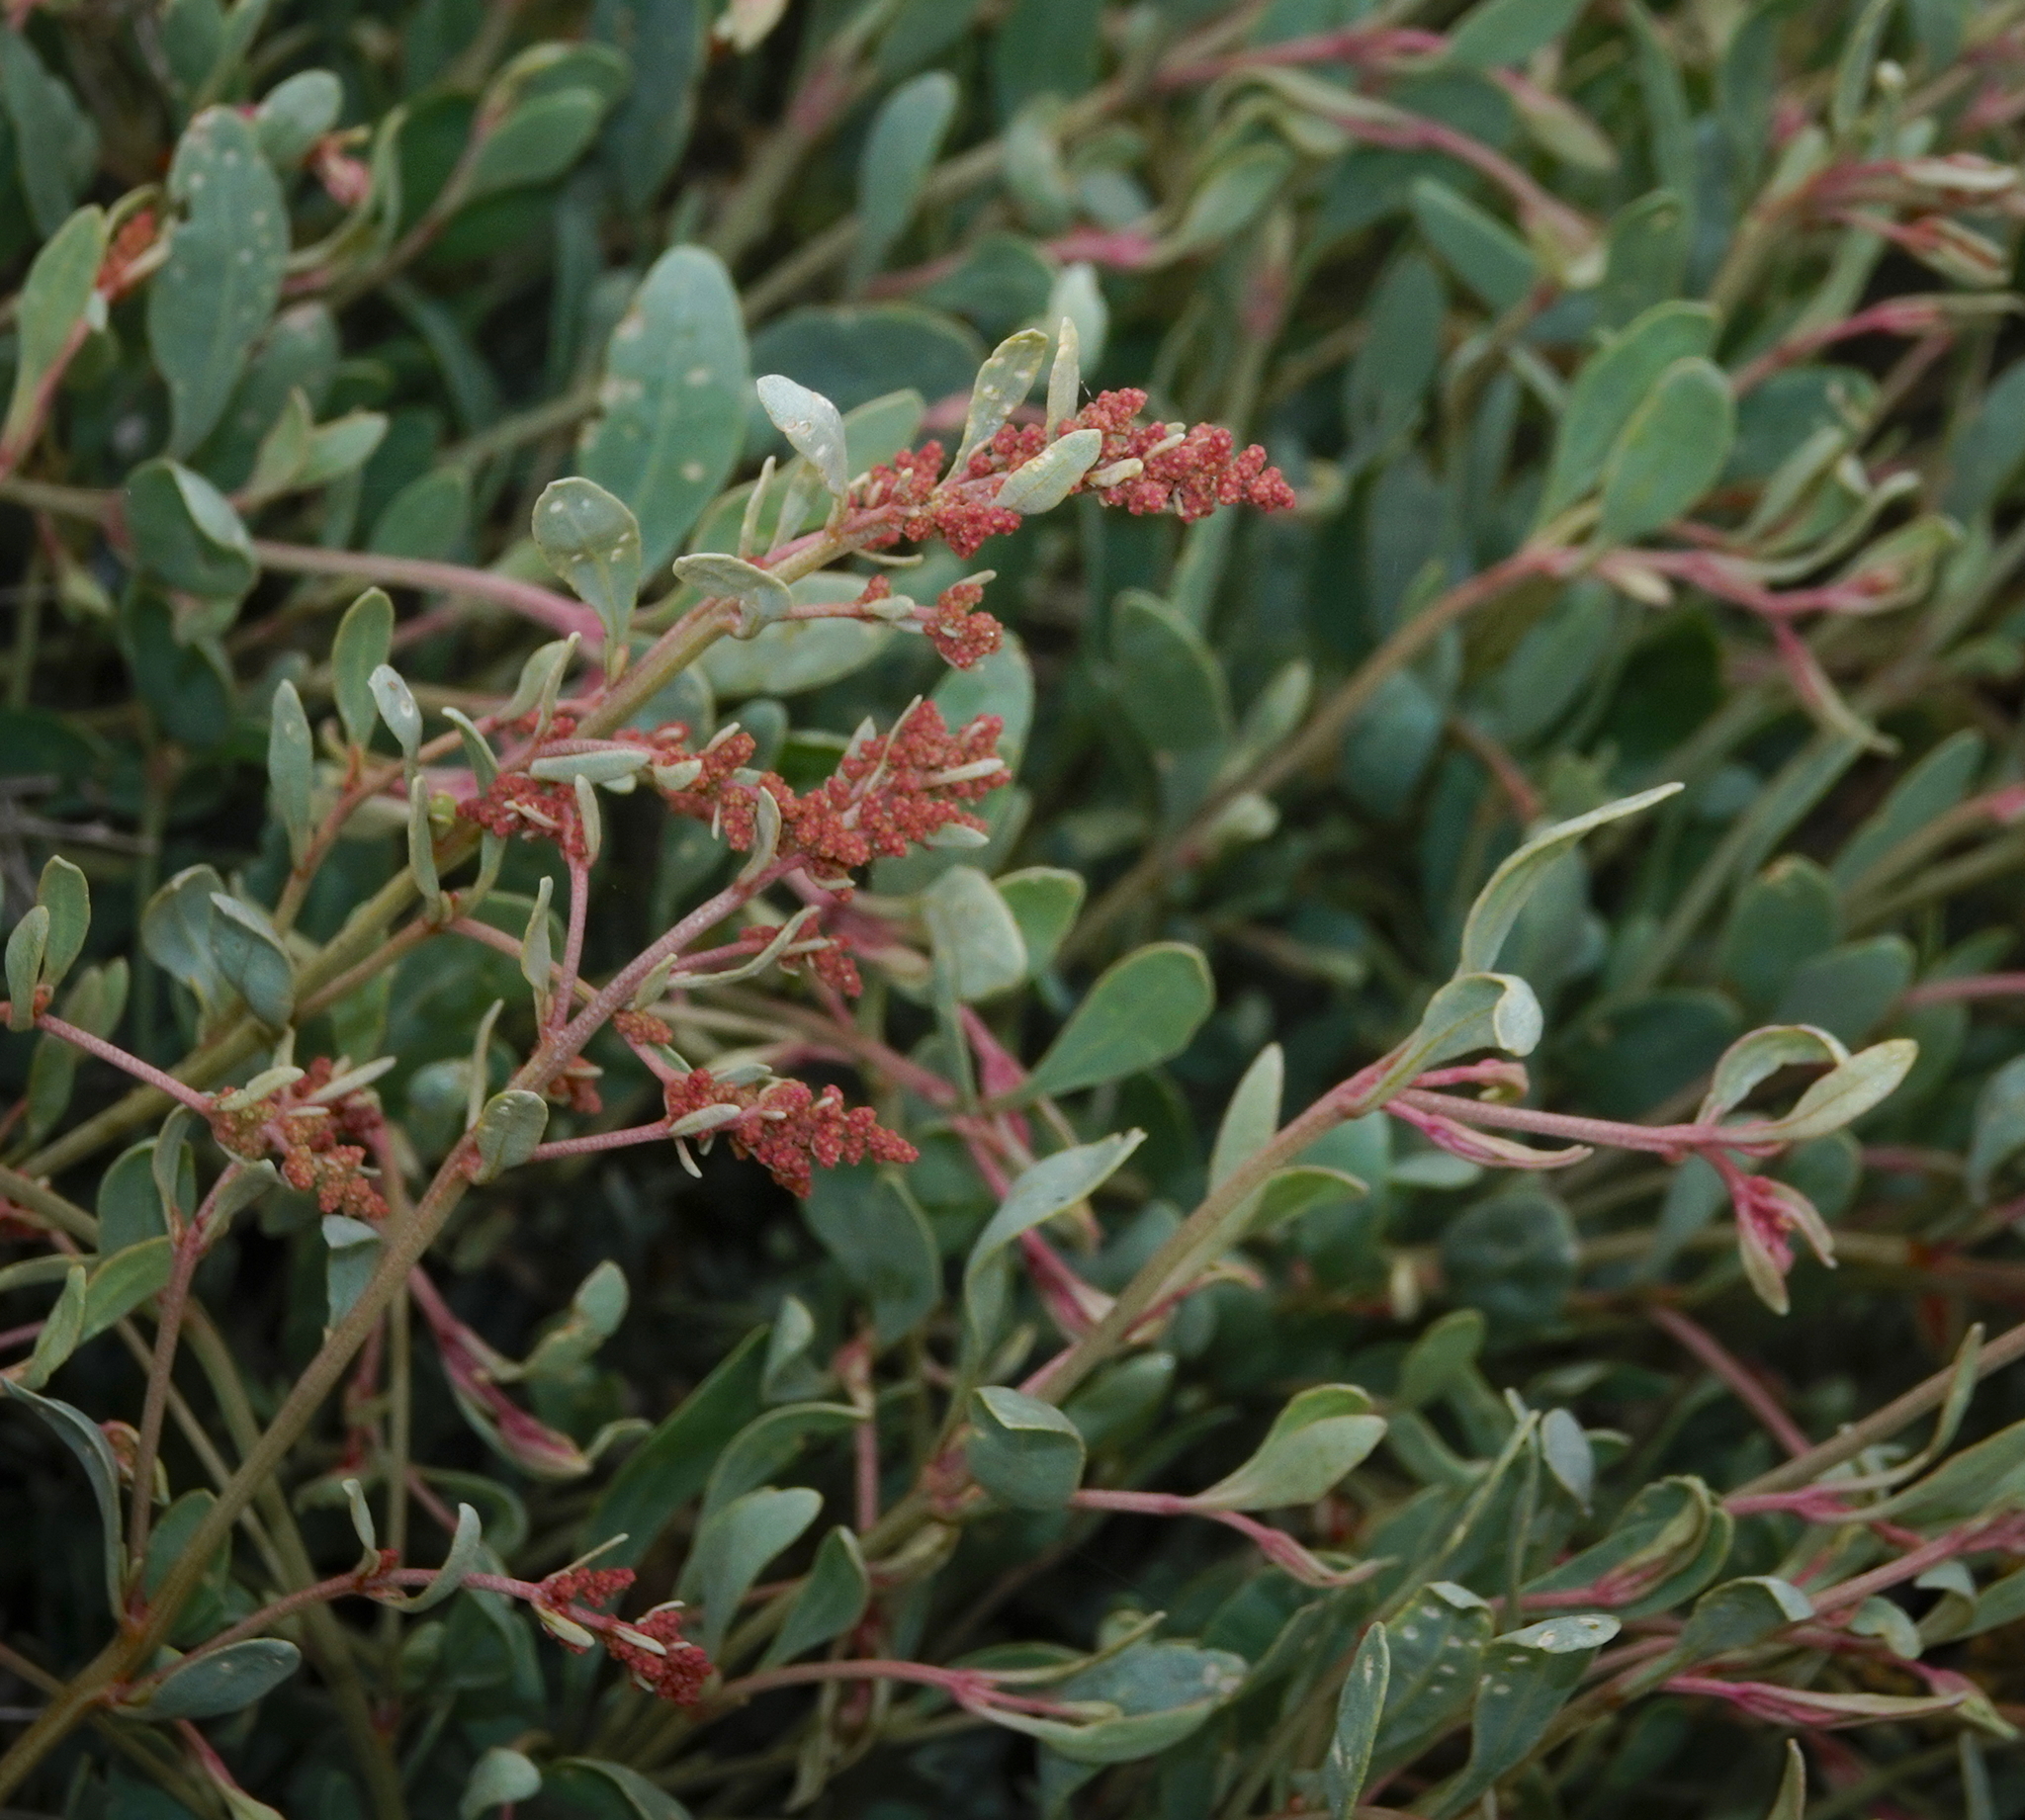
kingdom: Plantae
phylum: Tracheophyta
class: Magnoliopsida
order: Caryophyllales
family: Amaranthaceae
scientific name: Amaranthaceae
